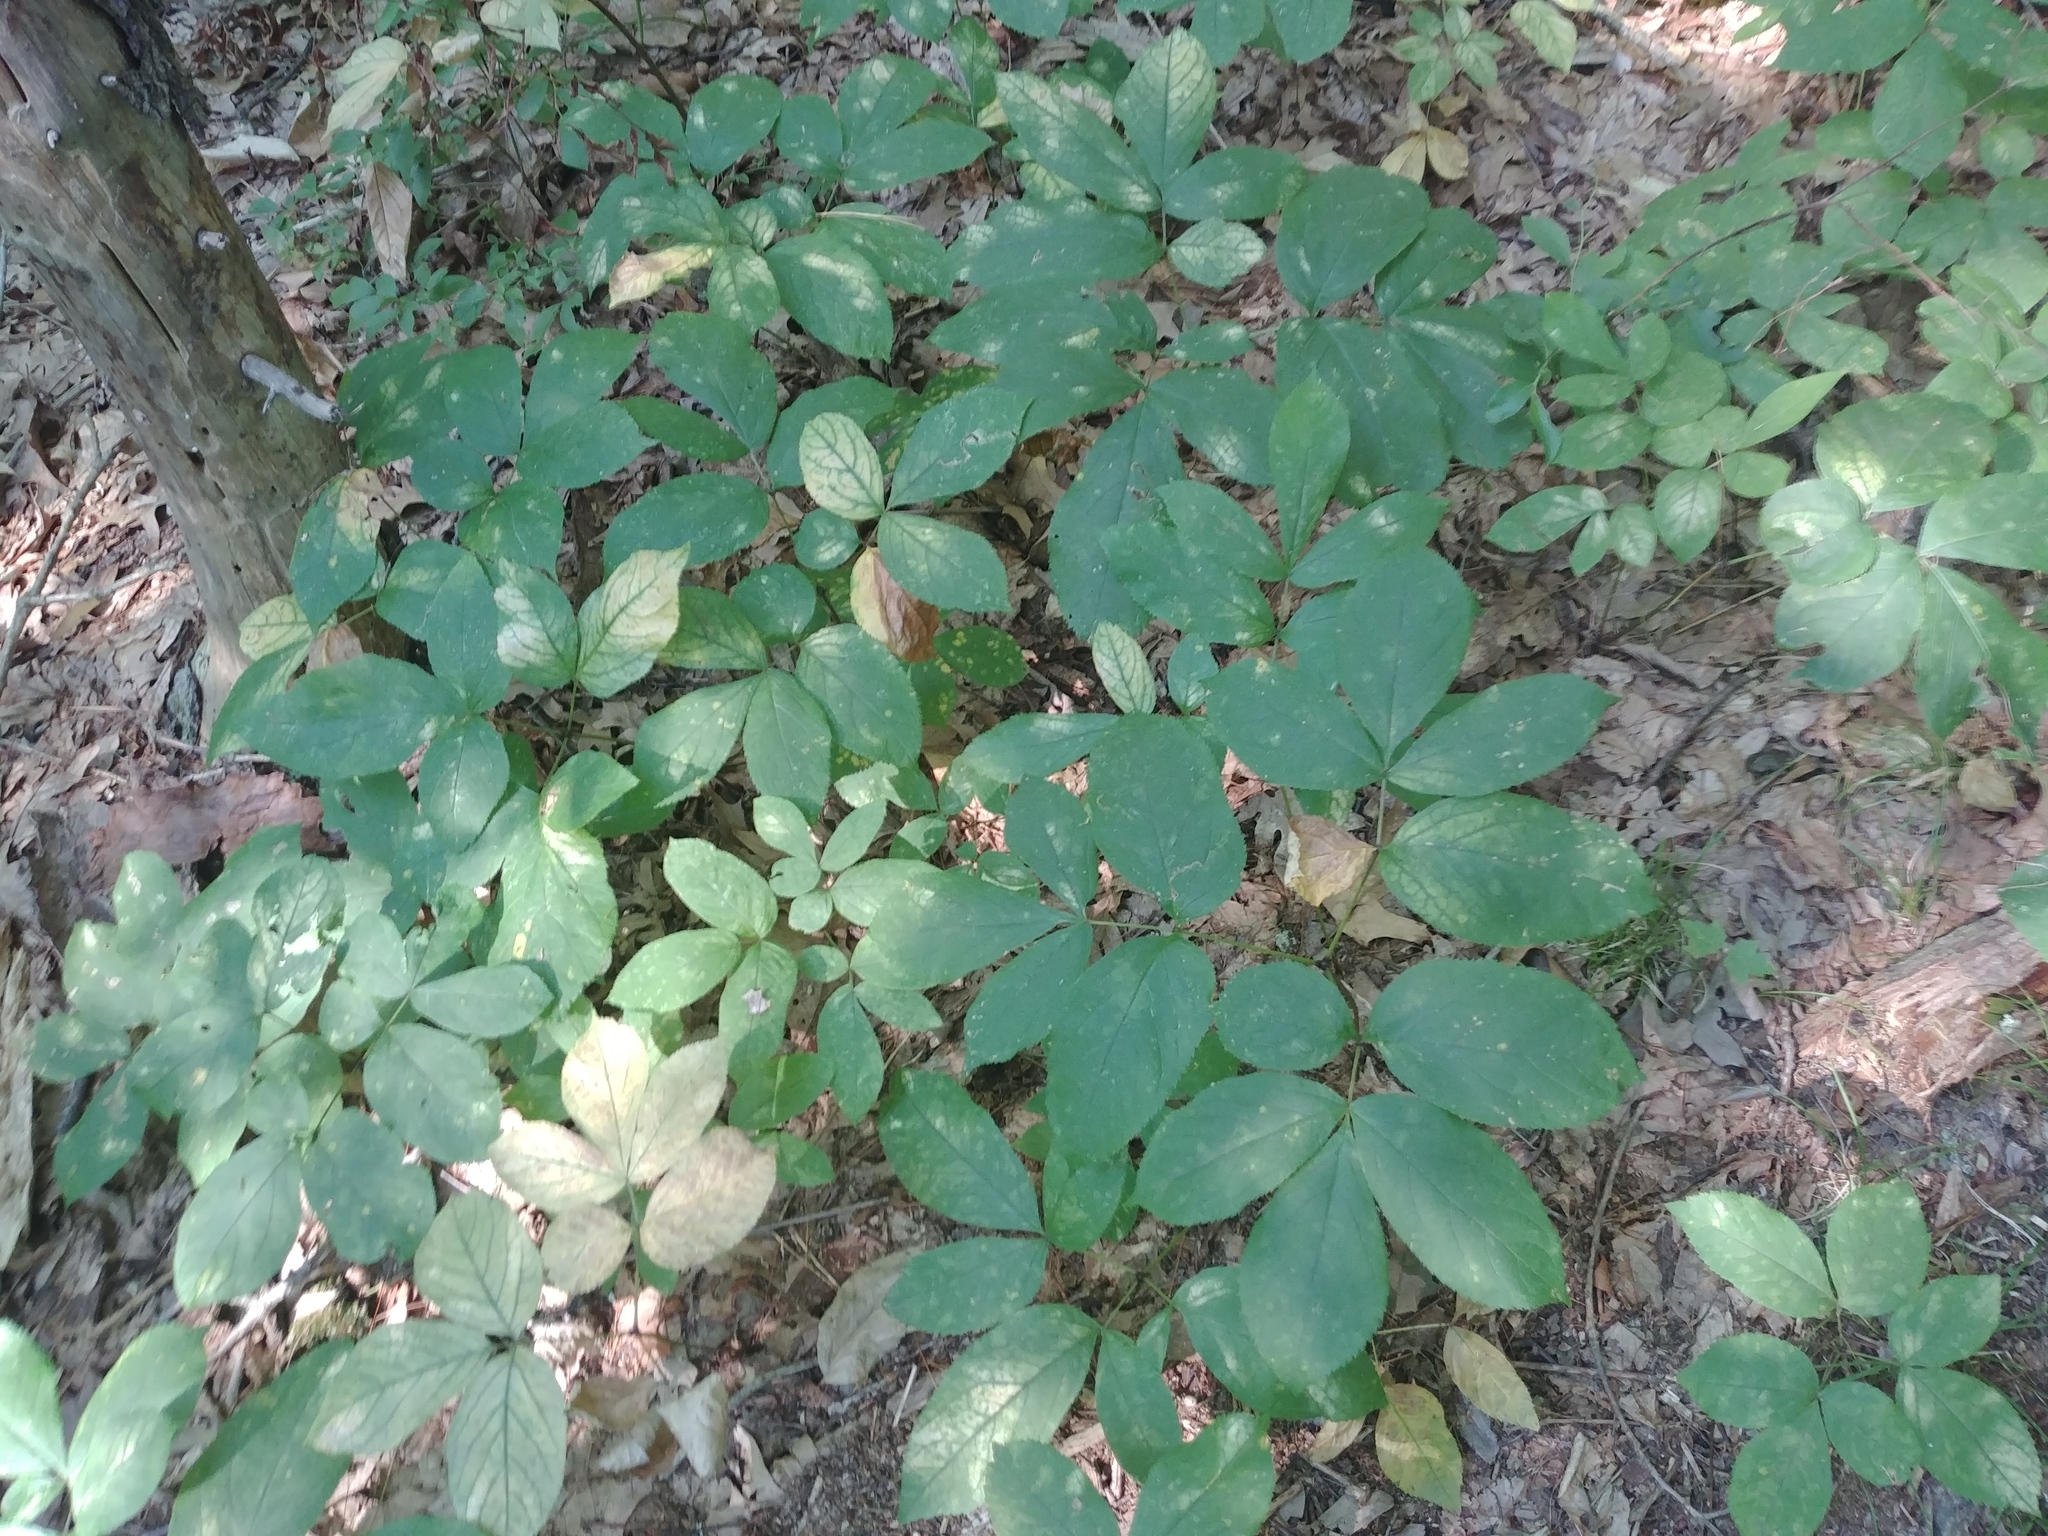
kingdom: Plantae
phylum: Tracheophyta
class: Magnoliopsida
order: Apiales
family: Araliaceae
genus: Aralia
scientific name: Aralia nudicaulis
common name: Wild sarsaparilla
